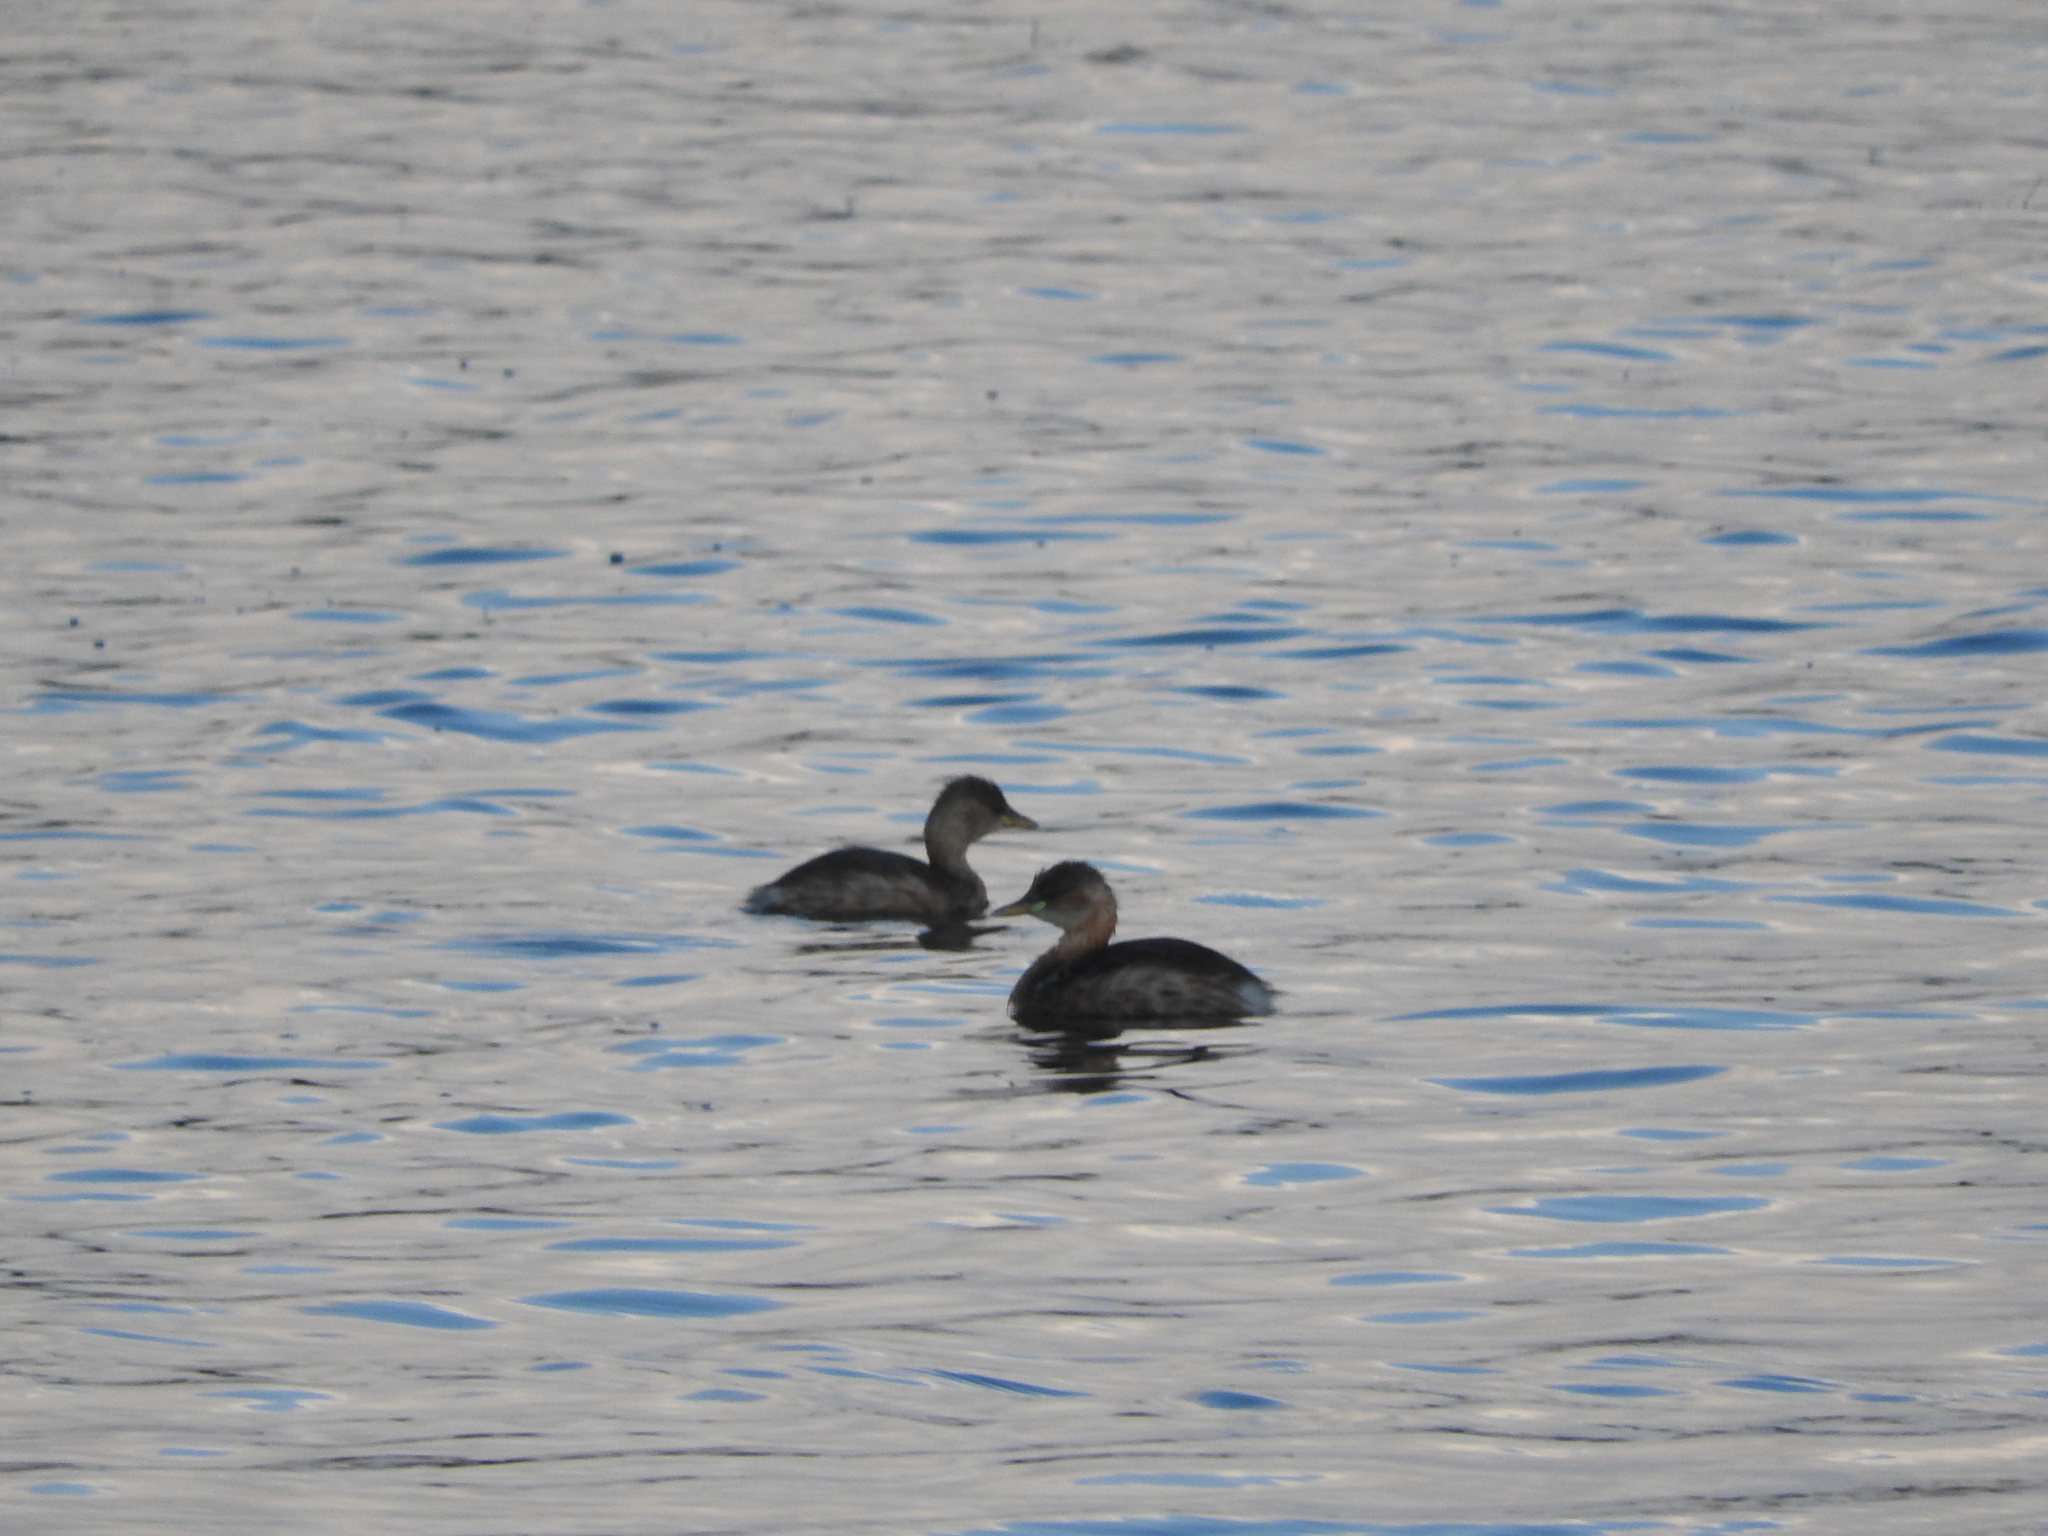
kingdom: Animalia
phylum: Chordata
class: Aves
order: Podicipediformes
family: Podicipedidae
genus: Tachybaptus
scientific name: Tachybaptus ruficollis
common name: Little grebe
